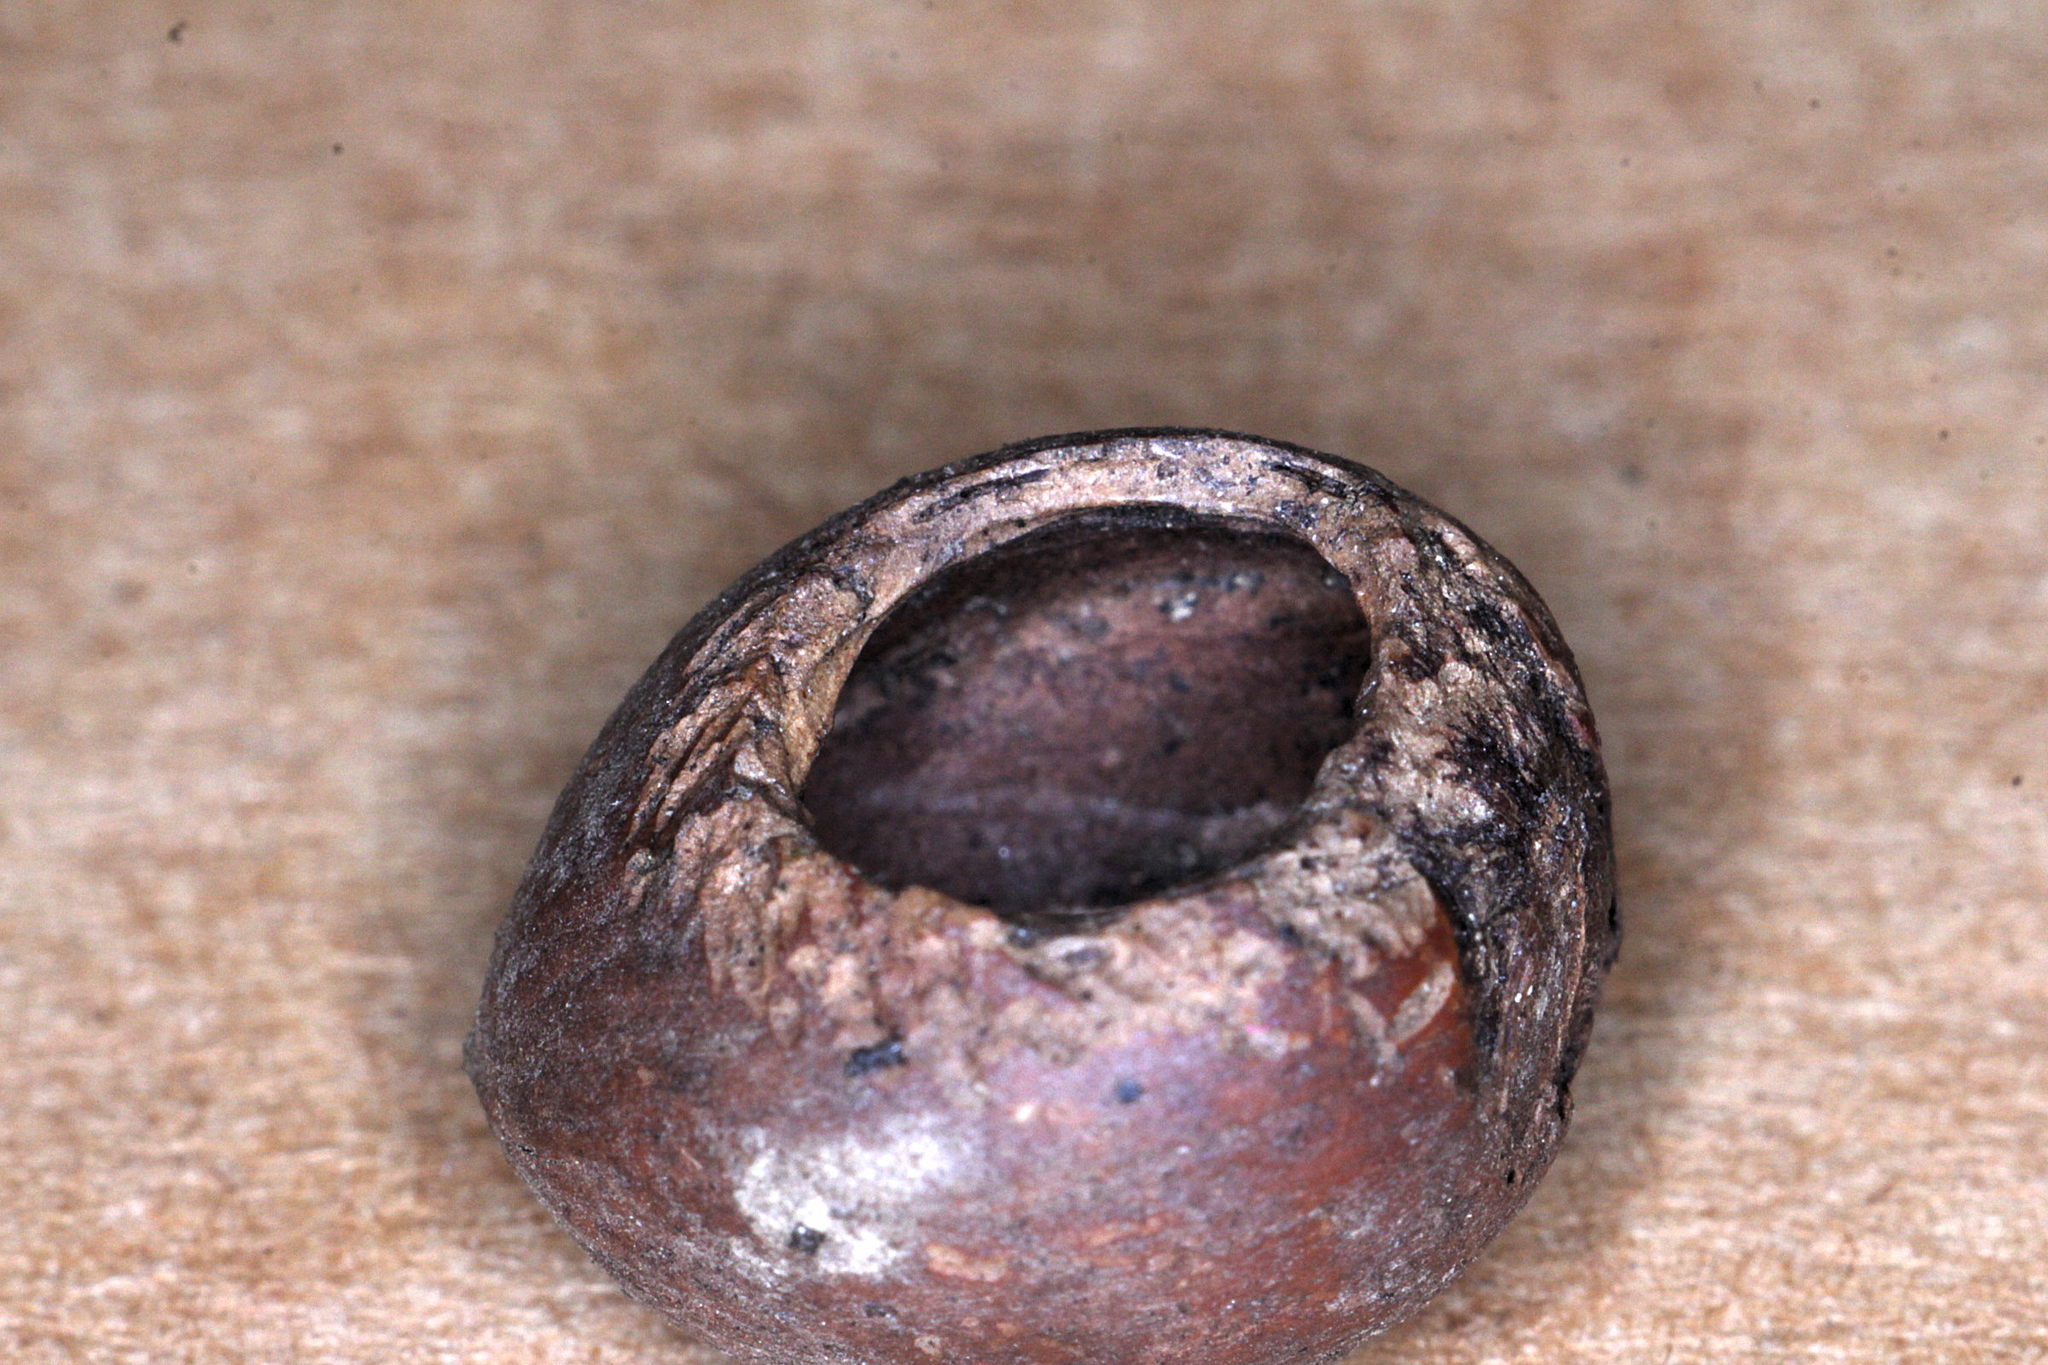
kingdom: Animalia
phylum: Chordata
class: Mammalia
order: Rodentia
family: Gliridae
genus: Muscardinus
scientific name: Muscardinus avellanarius
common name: Hazel dormouse
